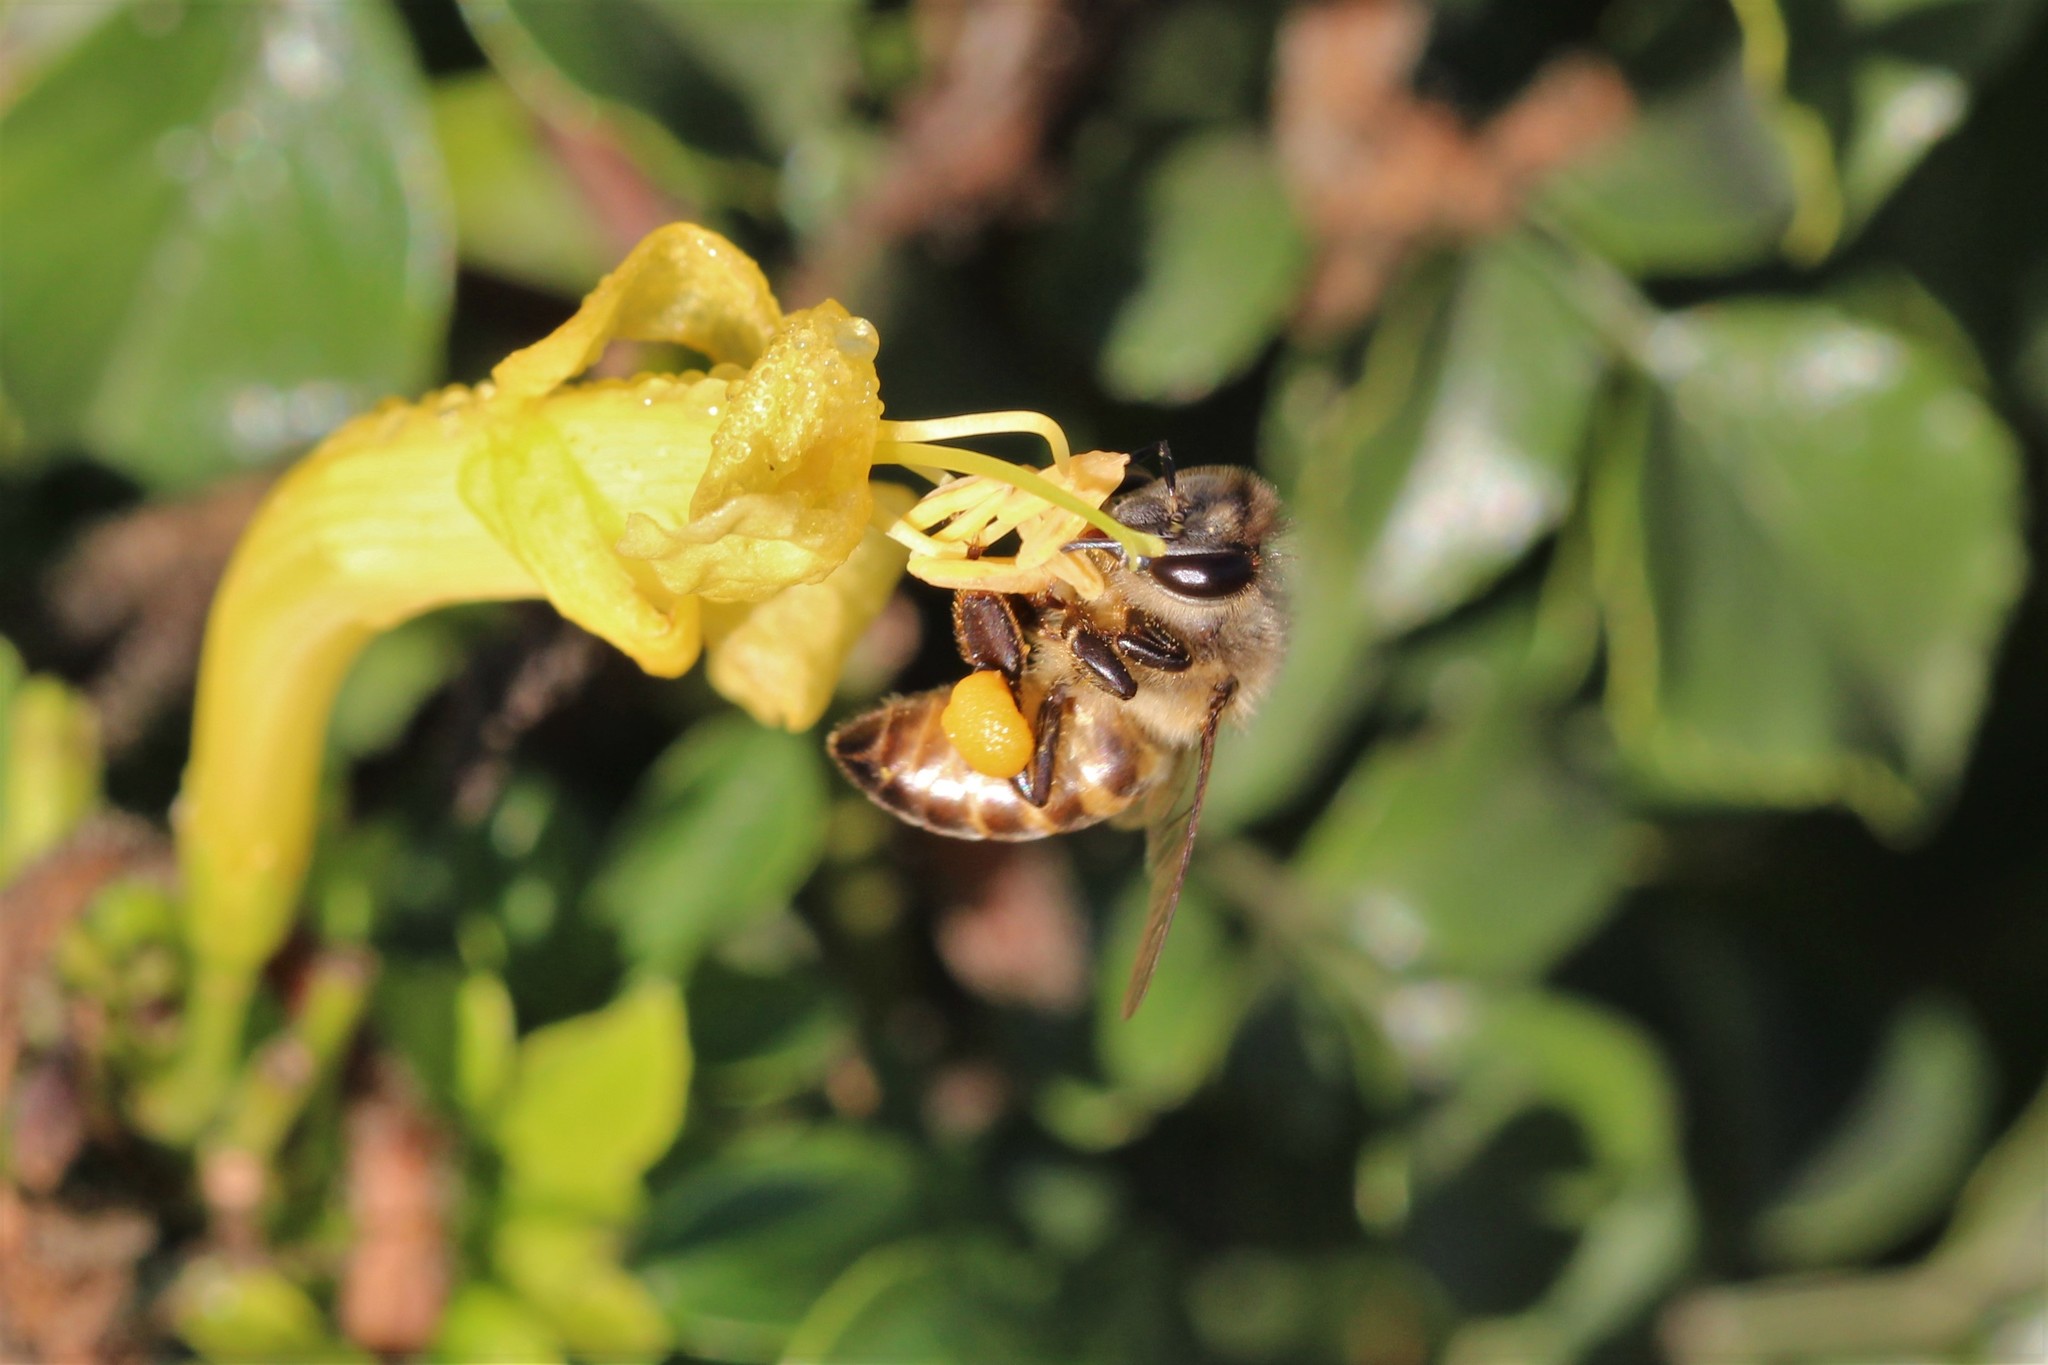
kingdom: Animalia
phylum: Arthropoda
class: Insecta
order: Hymenoptera
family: Apidae
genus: Apis
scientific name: Apis mellifera
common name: Honey bee
